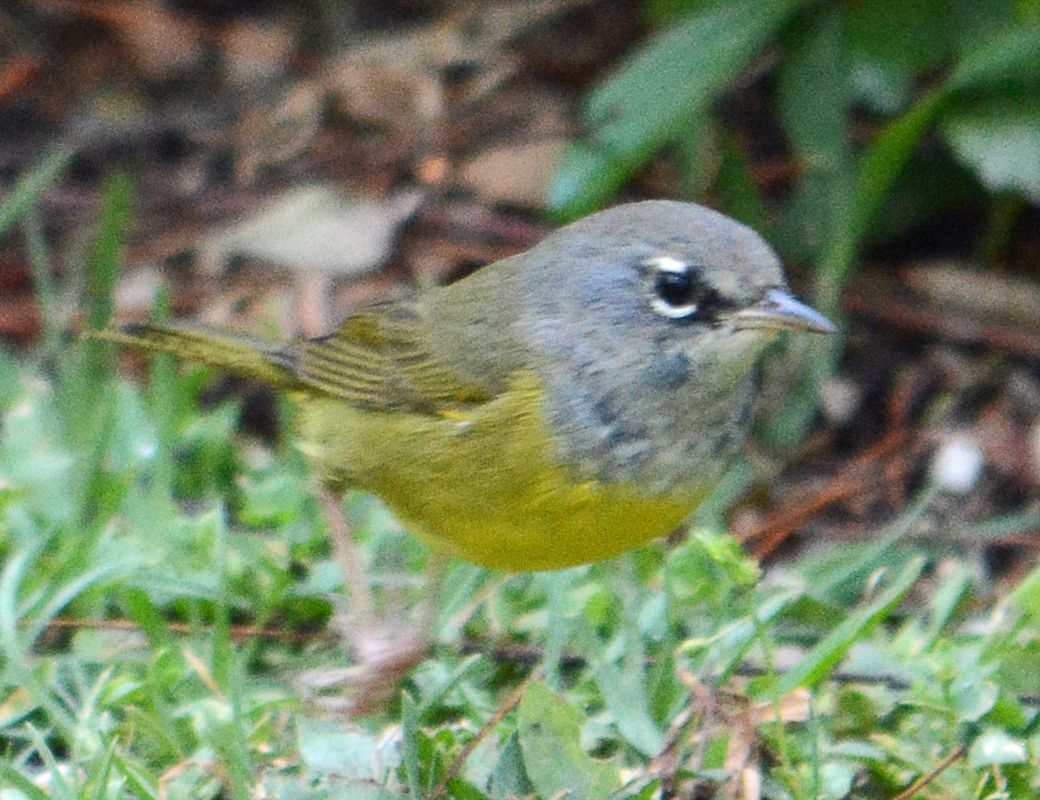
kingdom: Animalia
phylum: Chordata
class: Aves
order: Passeriformes
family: Parulidae
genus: Geothlypis
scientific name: Geothlypis tolmiei
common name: Macgillivray's warbler
